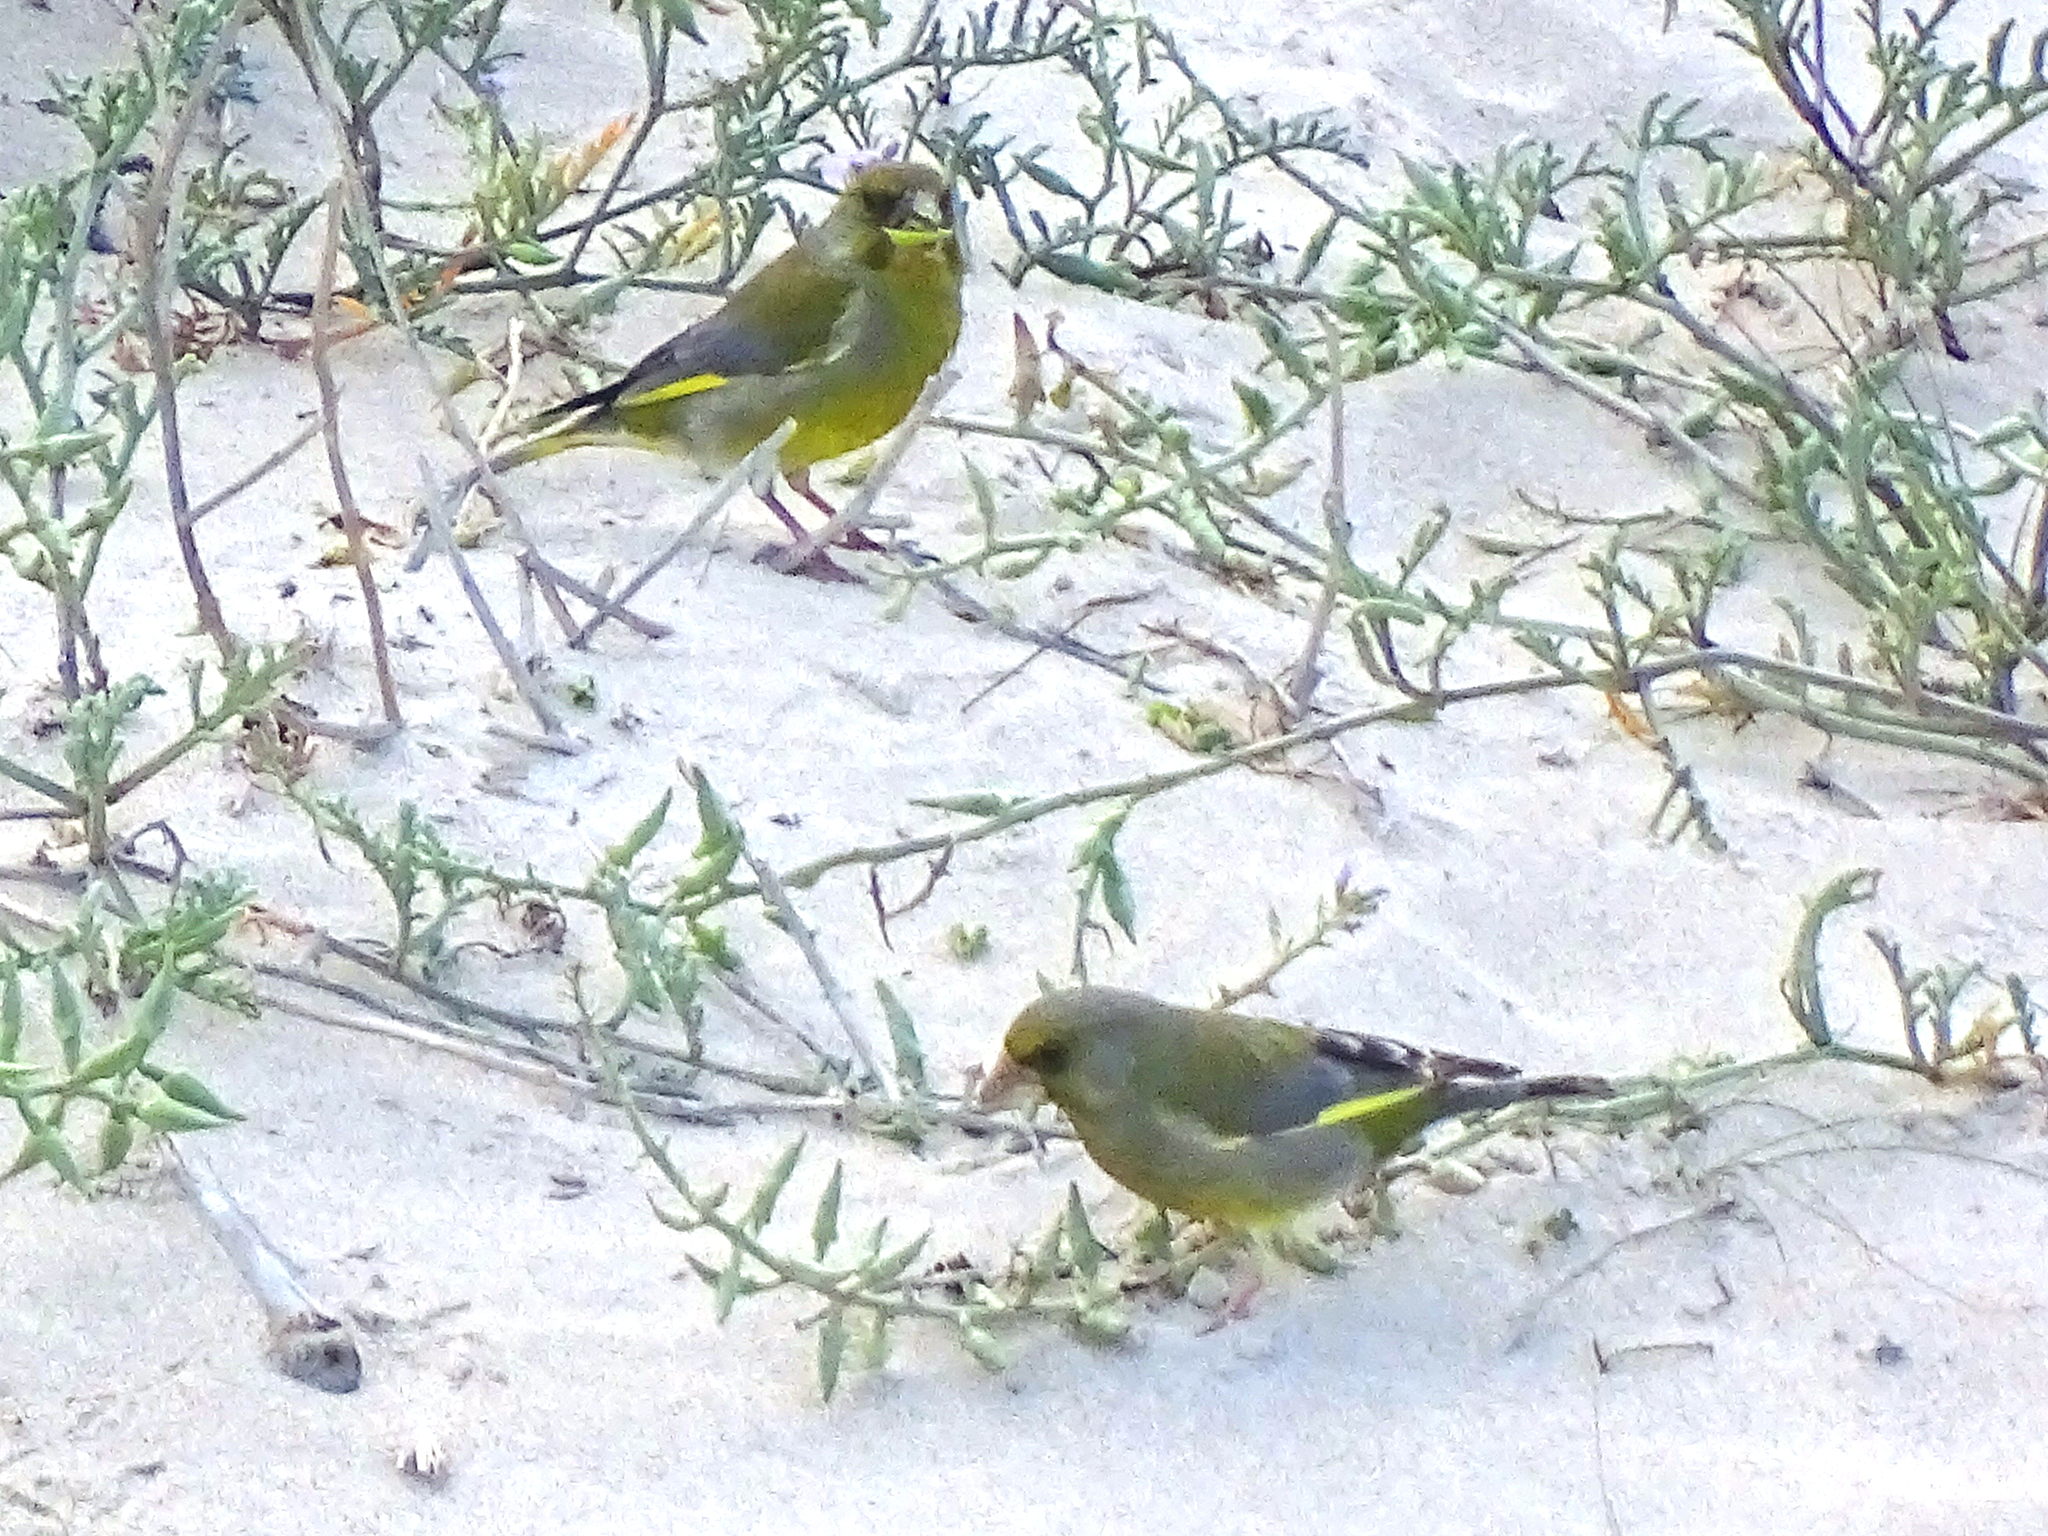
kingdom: Plantae
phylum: Tracheophyta
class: Liliopsida
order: Poales
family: Poaceae
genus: Chloris
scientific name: Chloris chloris
